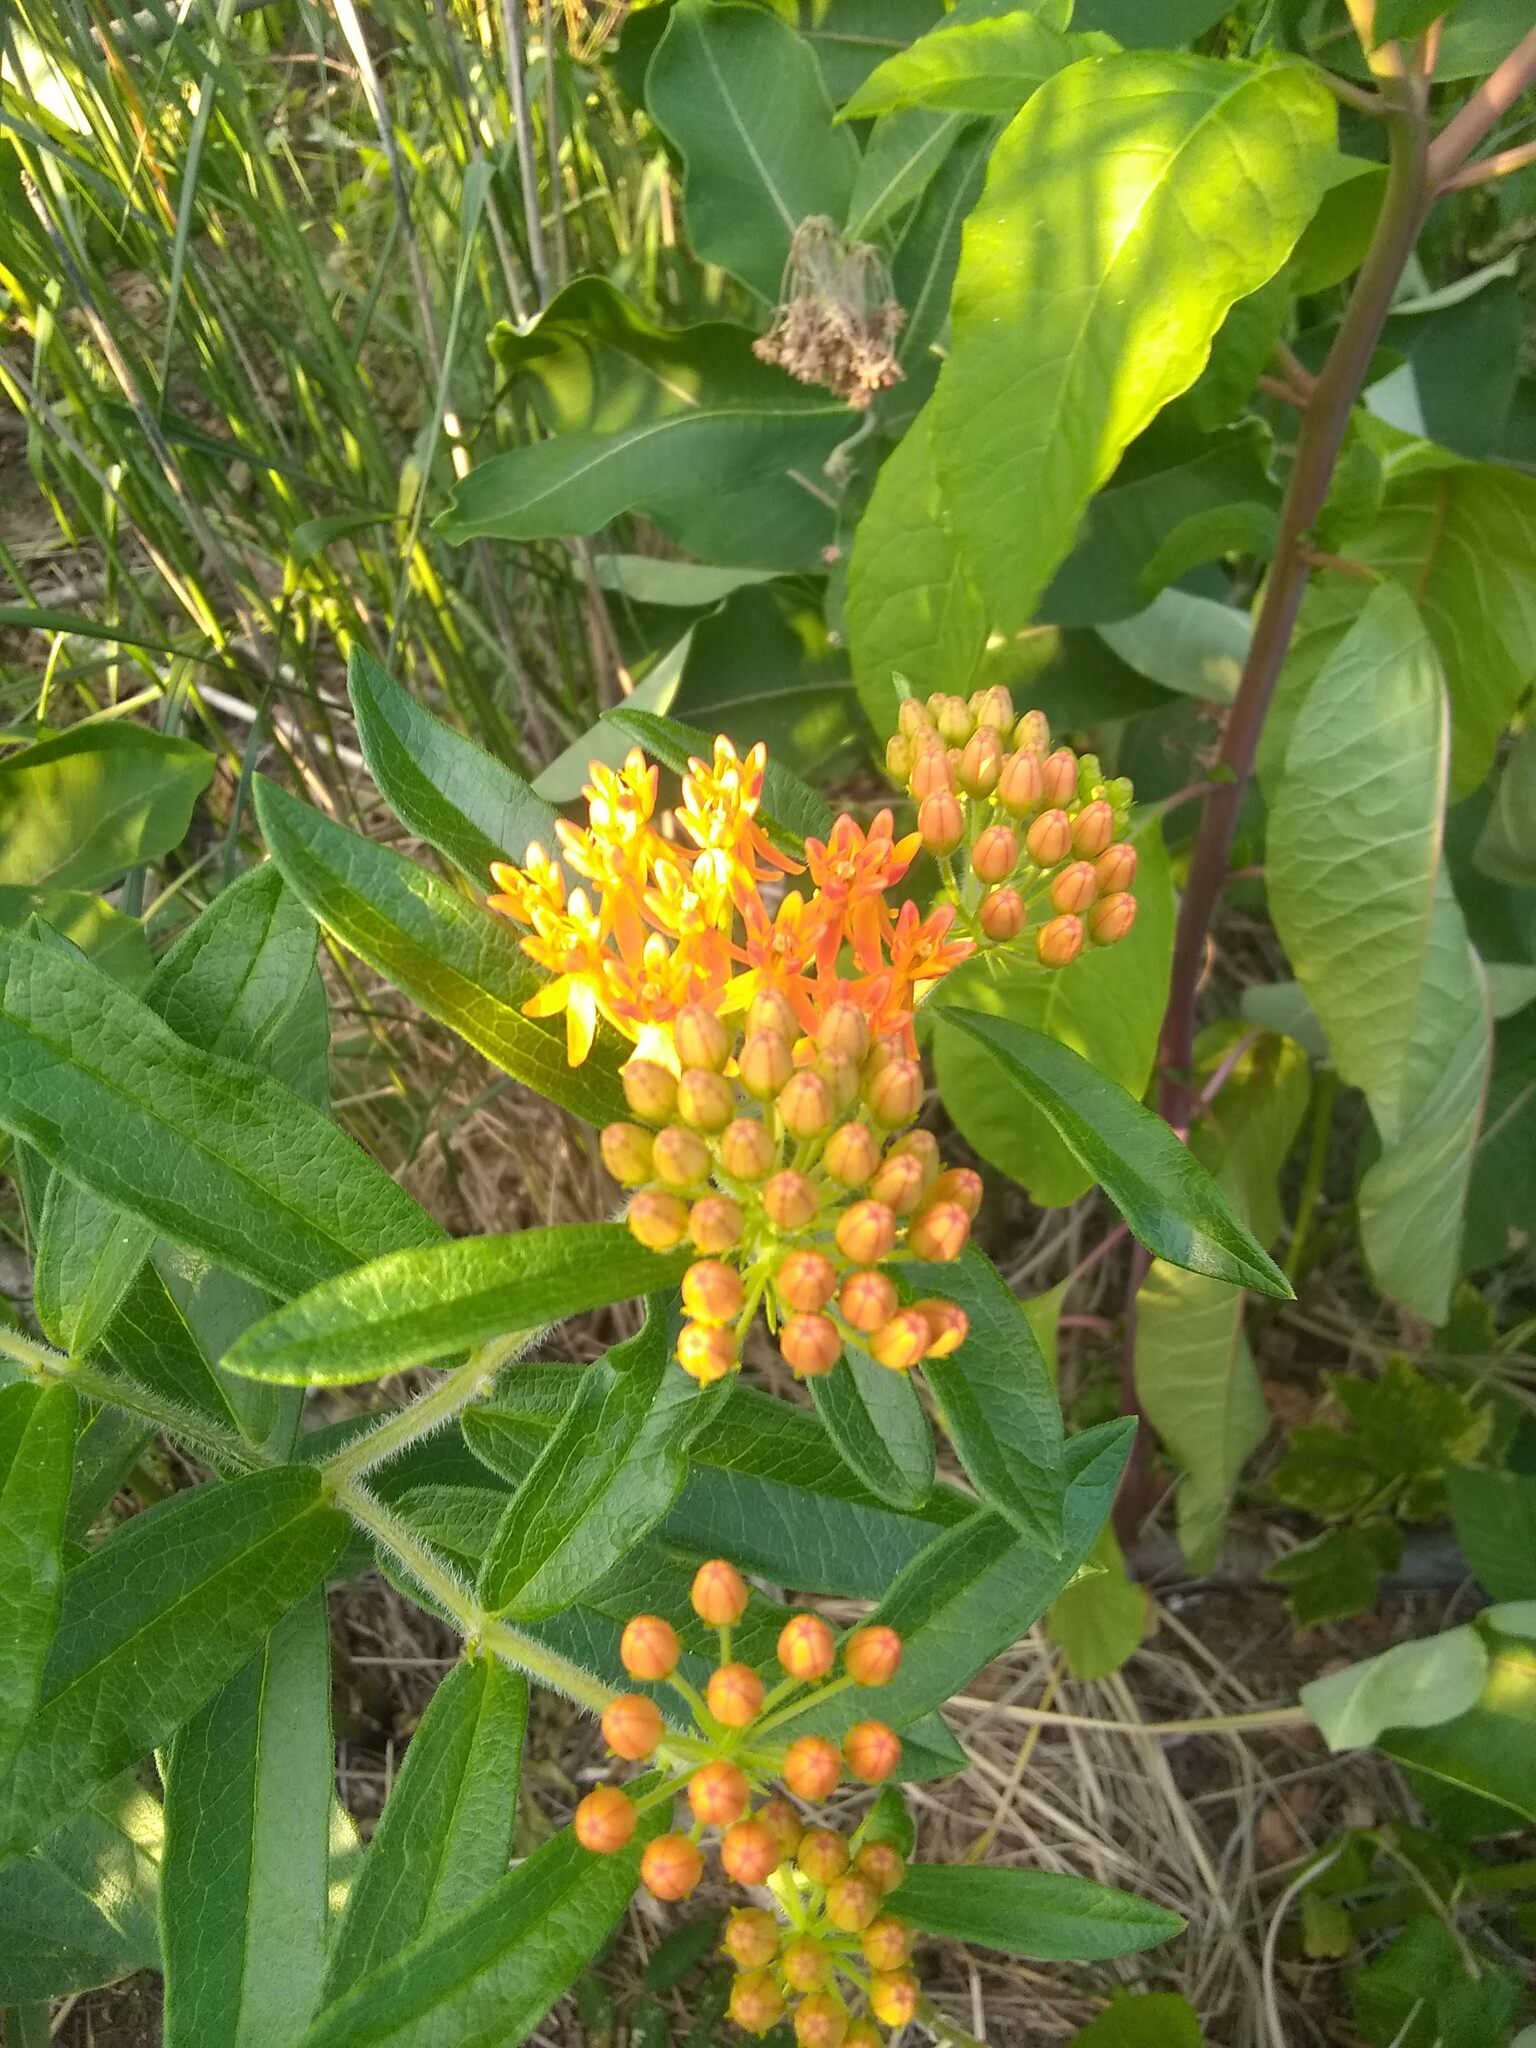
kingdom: Animalia
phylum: Arthropoda
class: Insecta
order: Lepidoptera
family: Nymphalidae
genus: Danaus
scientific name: Danaus plexippus
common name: Monarch
